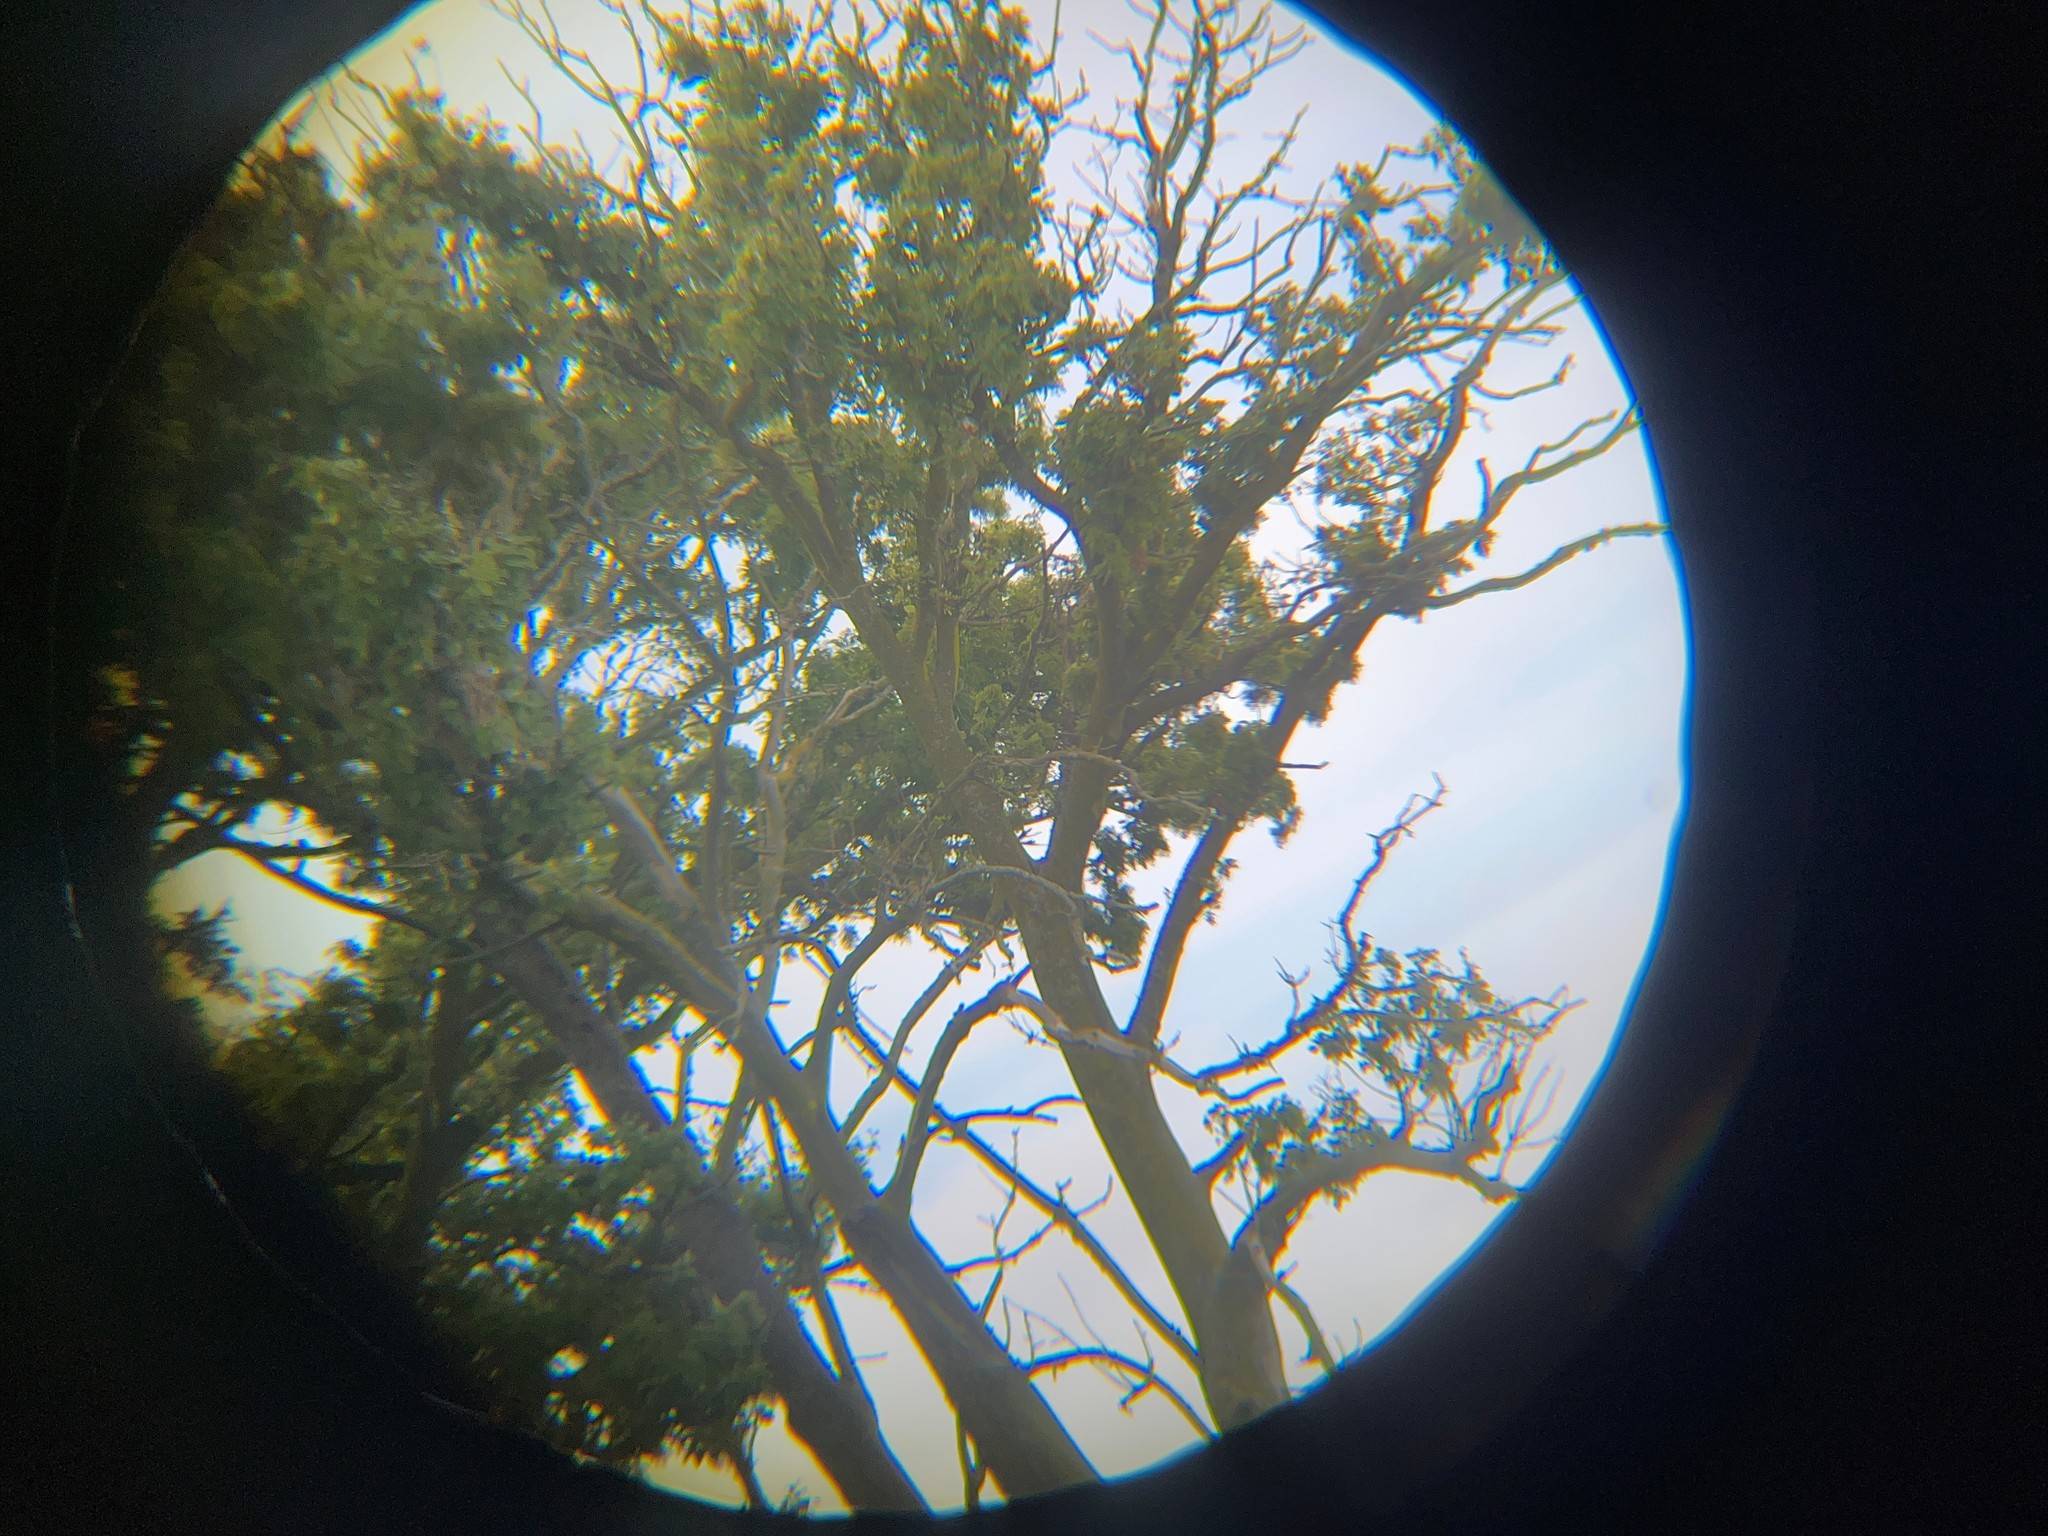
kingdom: Plantae
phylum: Tracheophyta
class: Magnoliopsida
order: Malvales
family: Malvaceae
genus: Plagianthus
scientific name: Plagianthus regius
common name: Manatu
